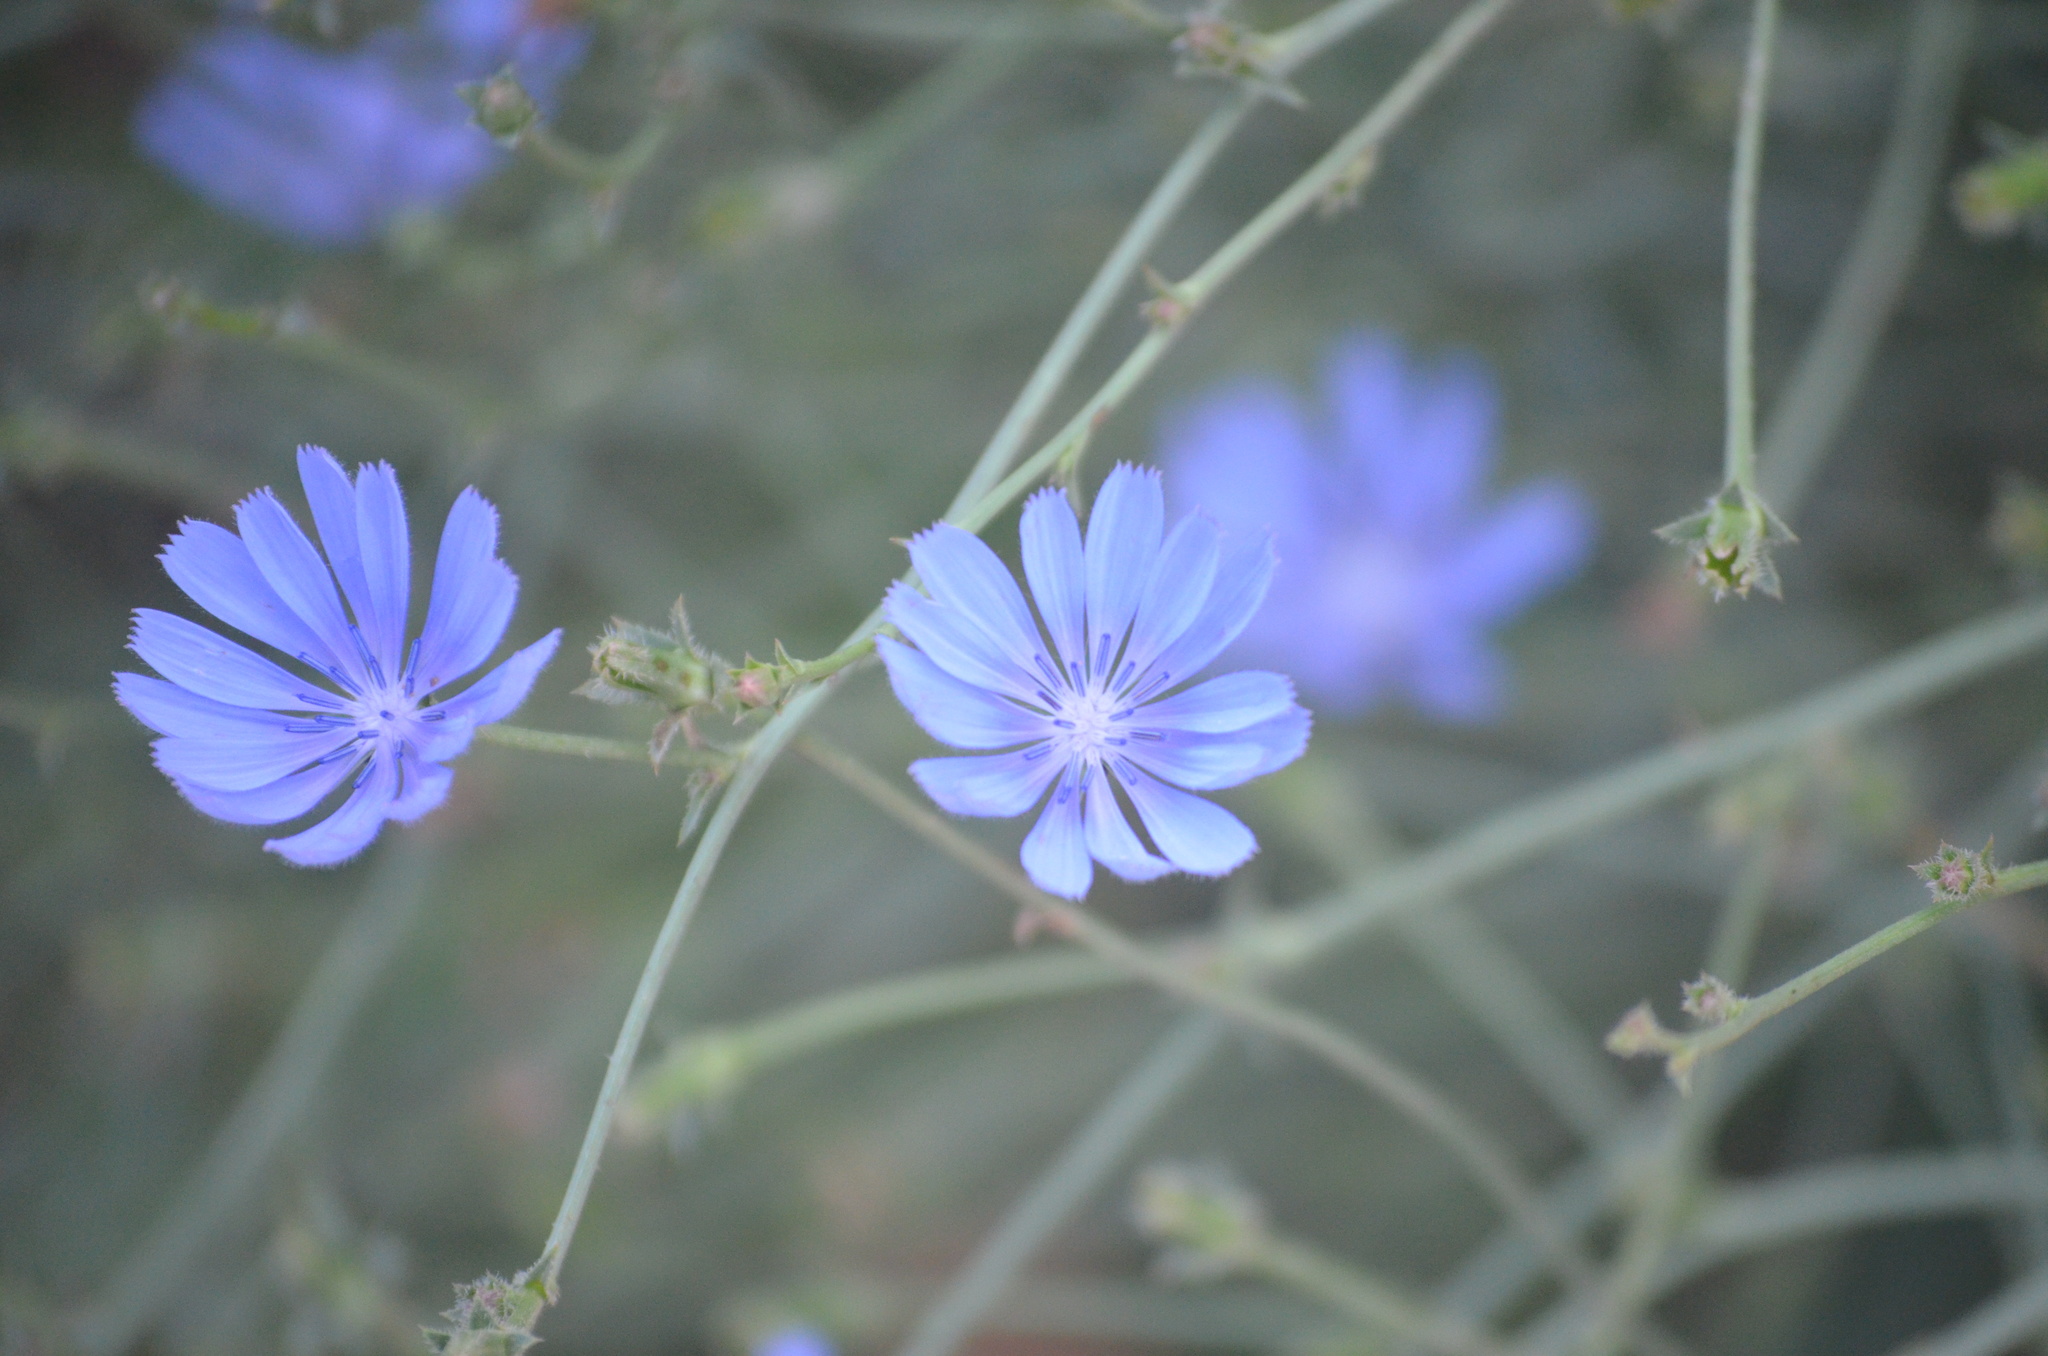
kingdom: Plantae
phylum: Tracheophyta
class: Magnoliopsida
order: Asterales
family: Asteraceae
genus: Cichorium
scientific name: Cichorium intybus
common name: Chicory
